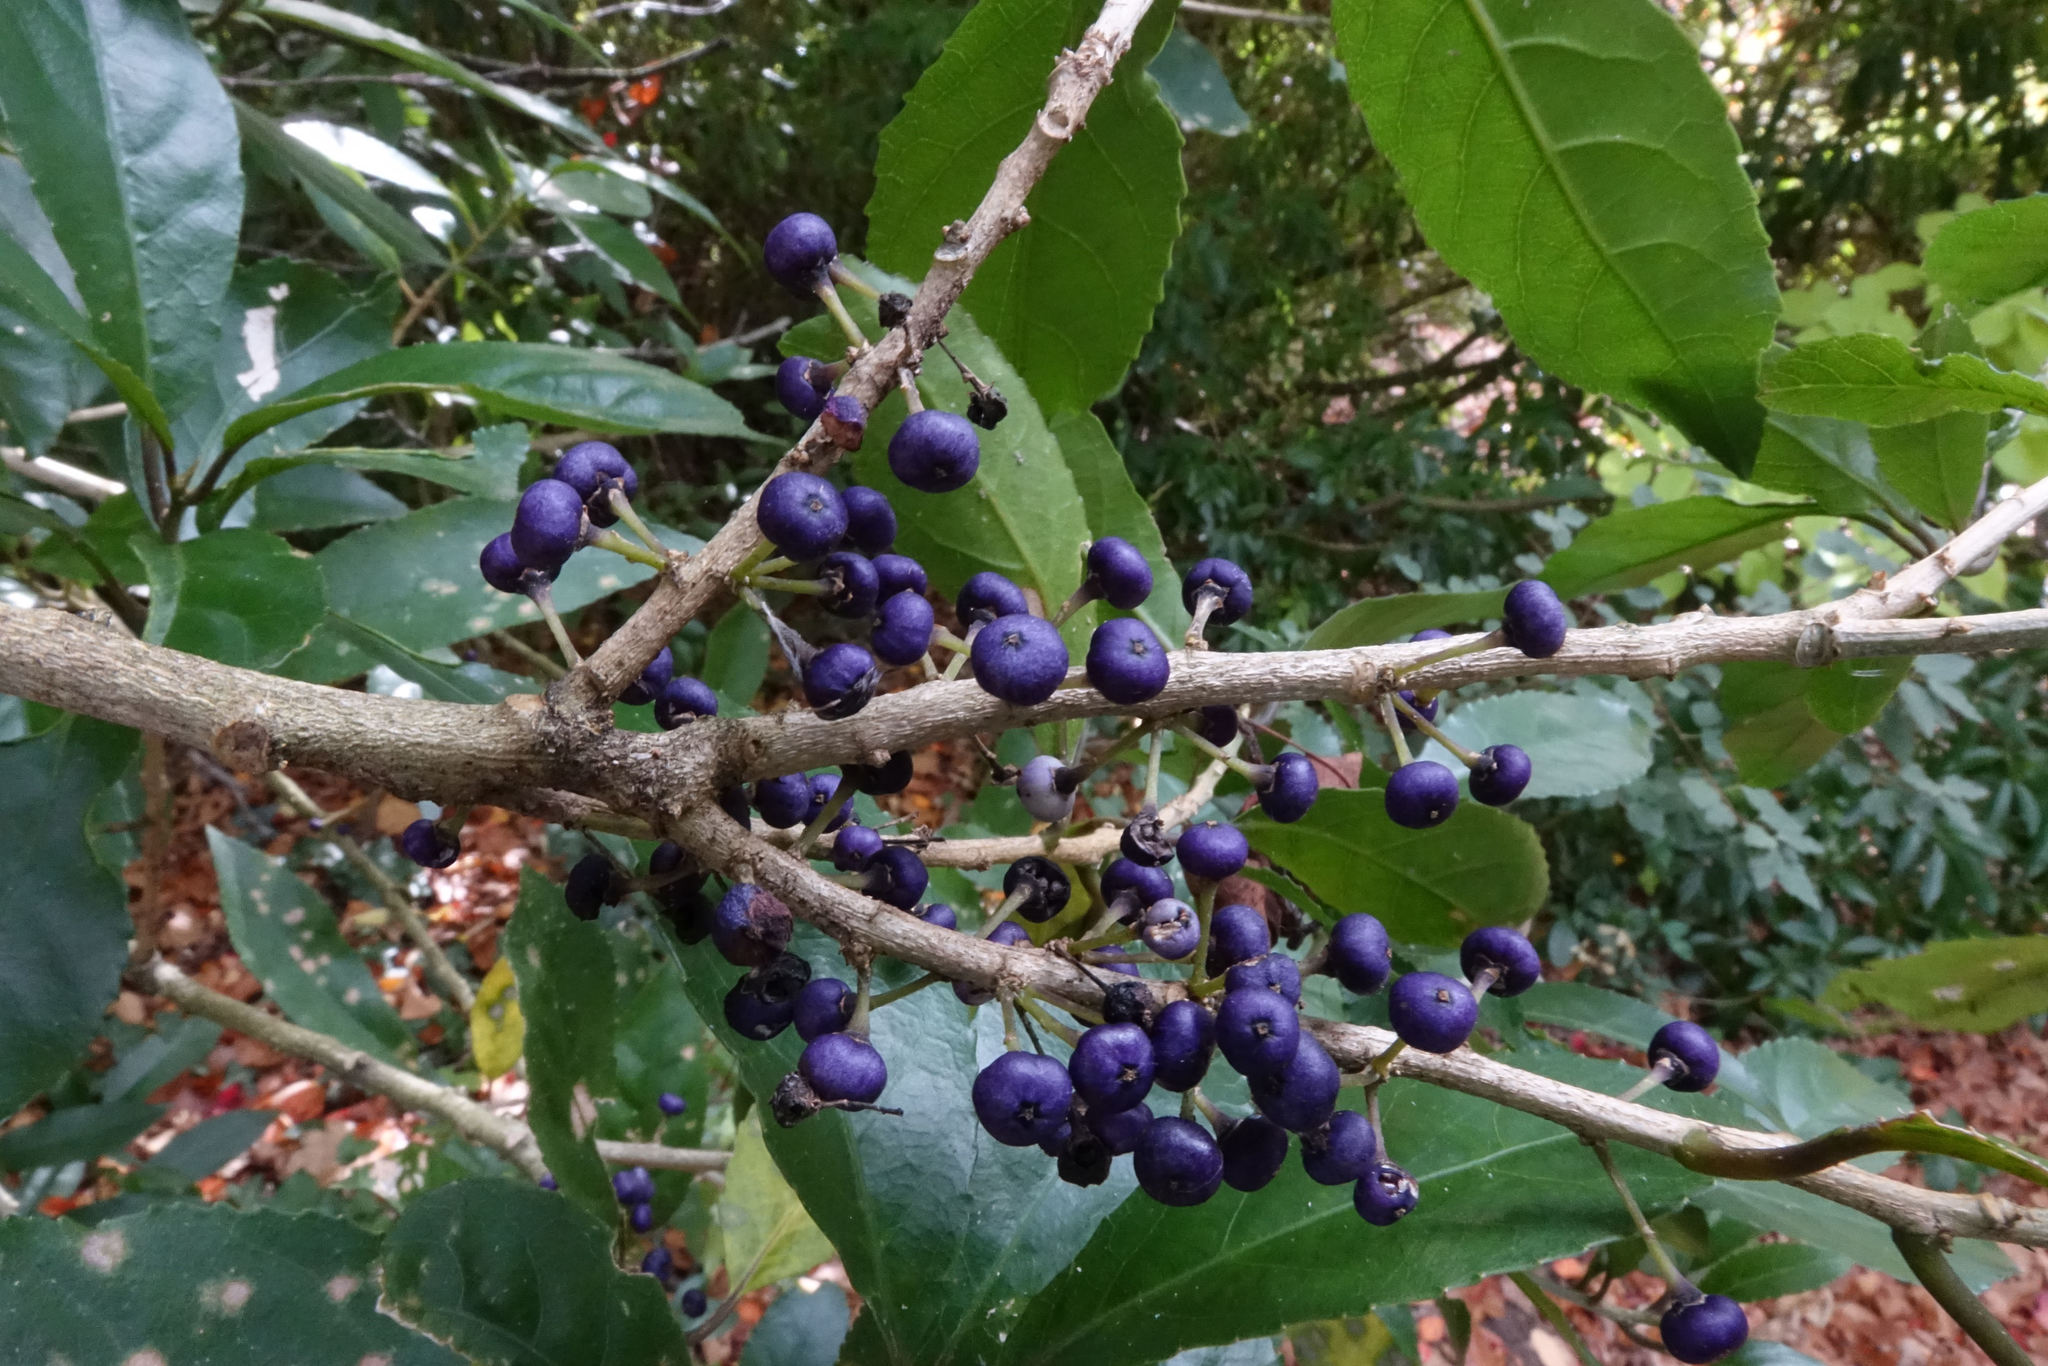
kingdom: Plantae
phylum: Tracheophyta
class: Magnoliopsida
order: Malpighiales
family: Violaceae
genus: Melicytus
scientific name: Melicytus ramiflorus
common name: Mahoe
